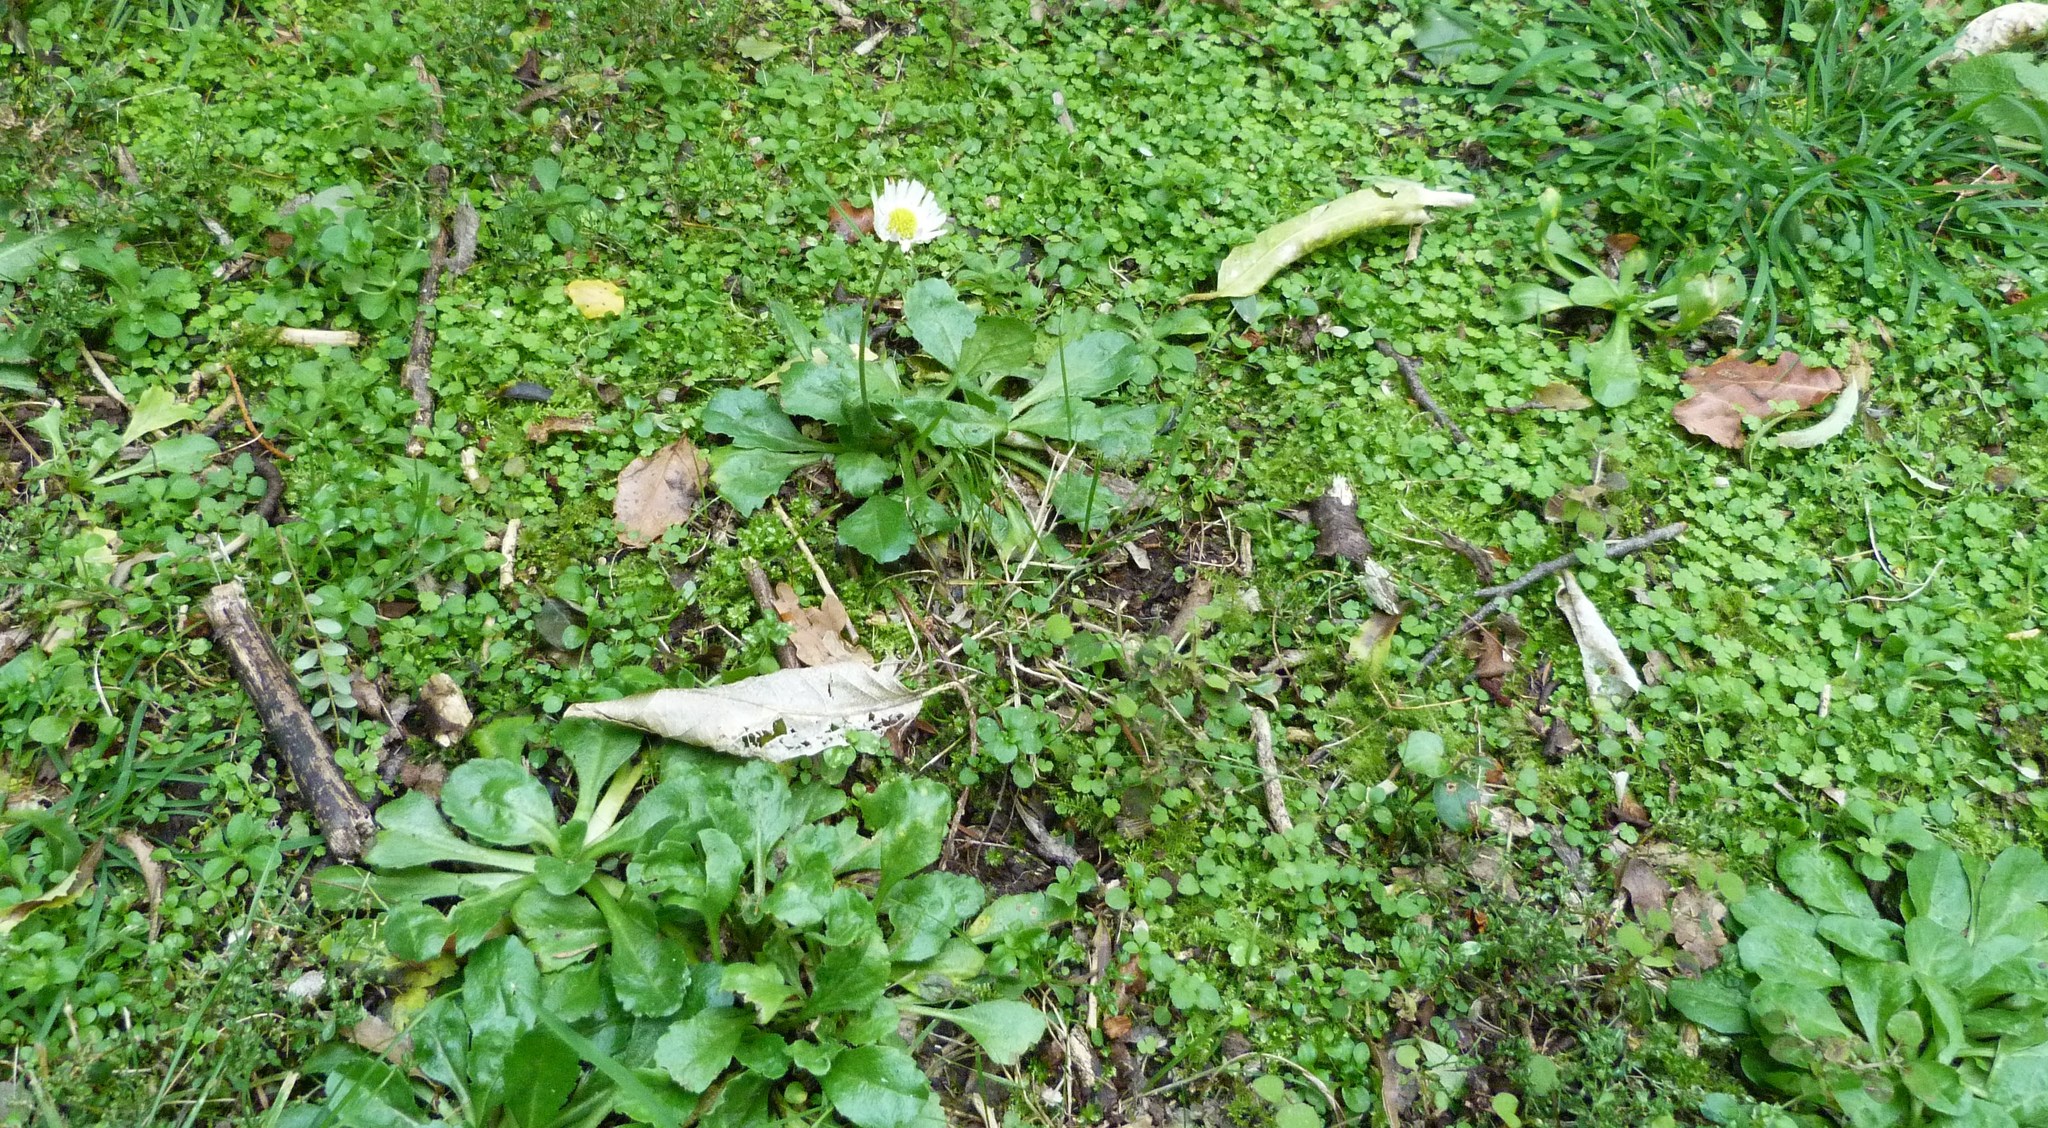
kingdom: Plantae
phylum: Tracheophyta
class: Magnoliopsida
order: Asterales
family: Asteraceae
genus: Bellis
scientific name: Bellis perennis
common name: Lawndaisy
